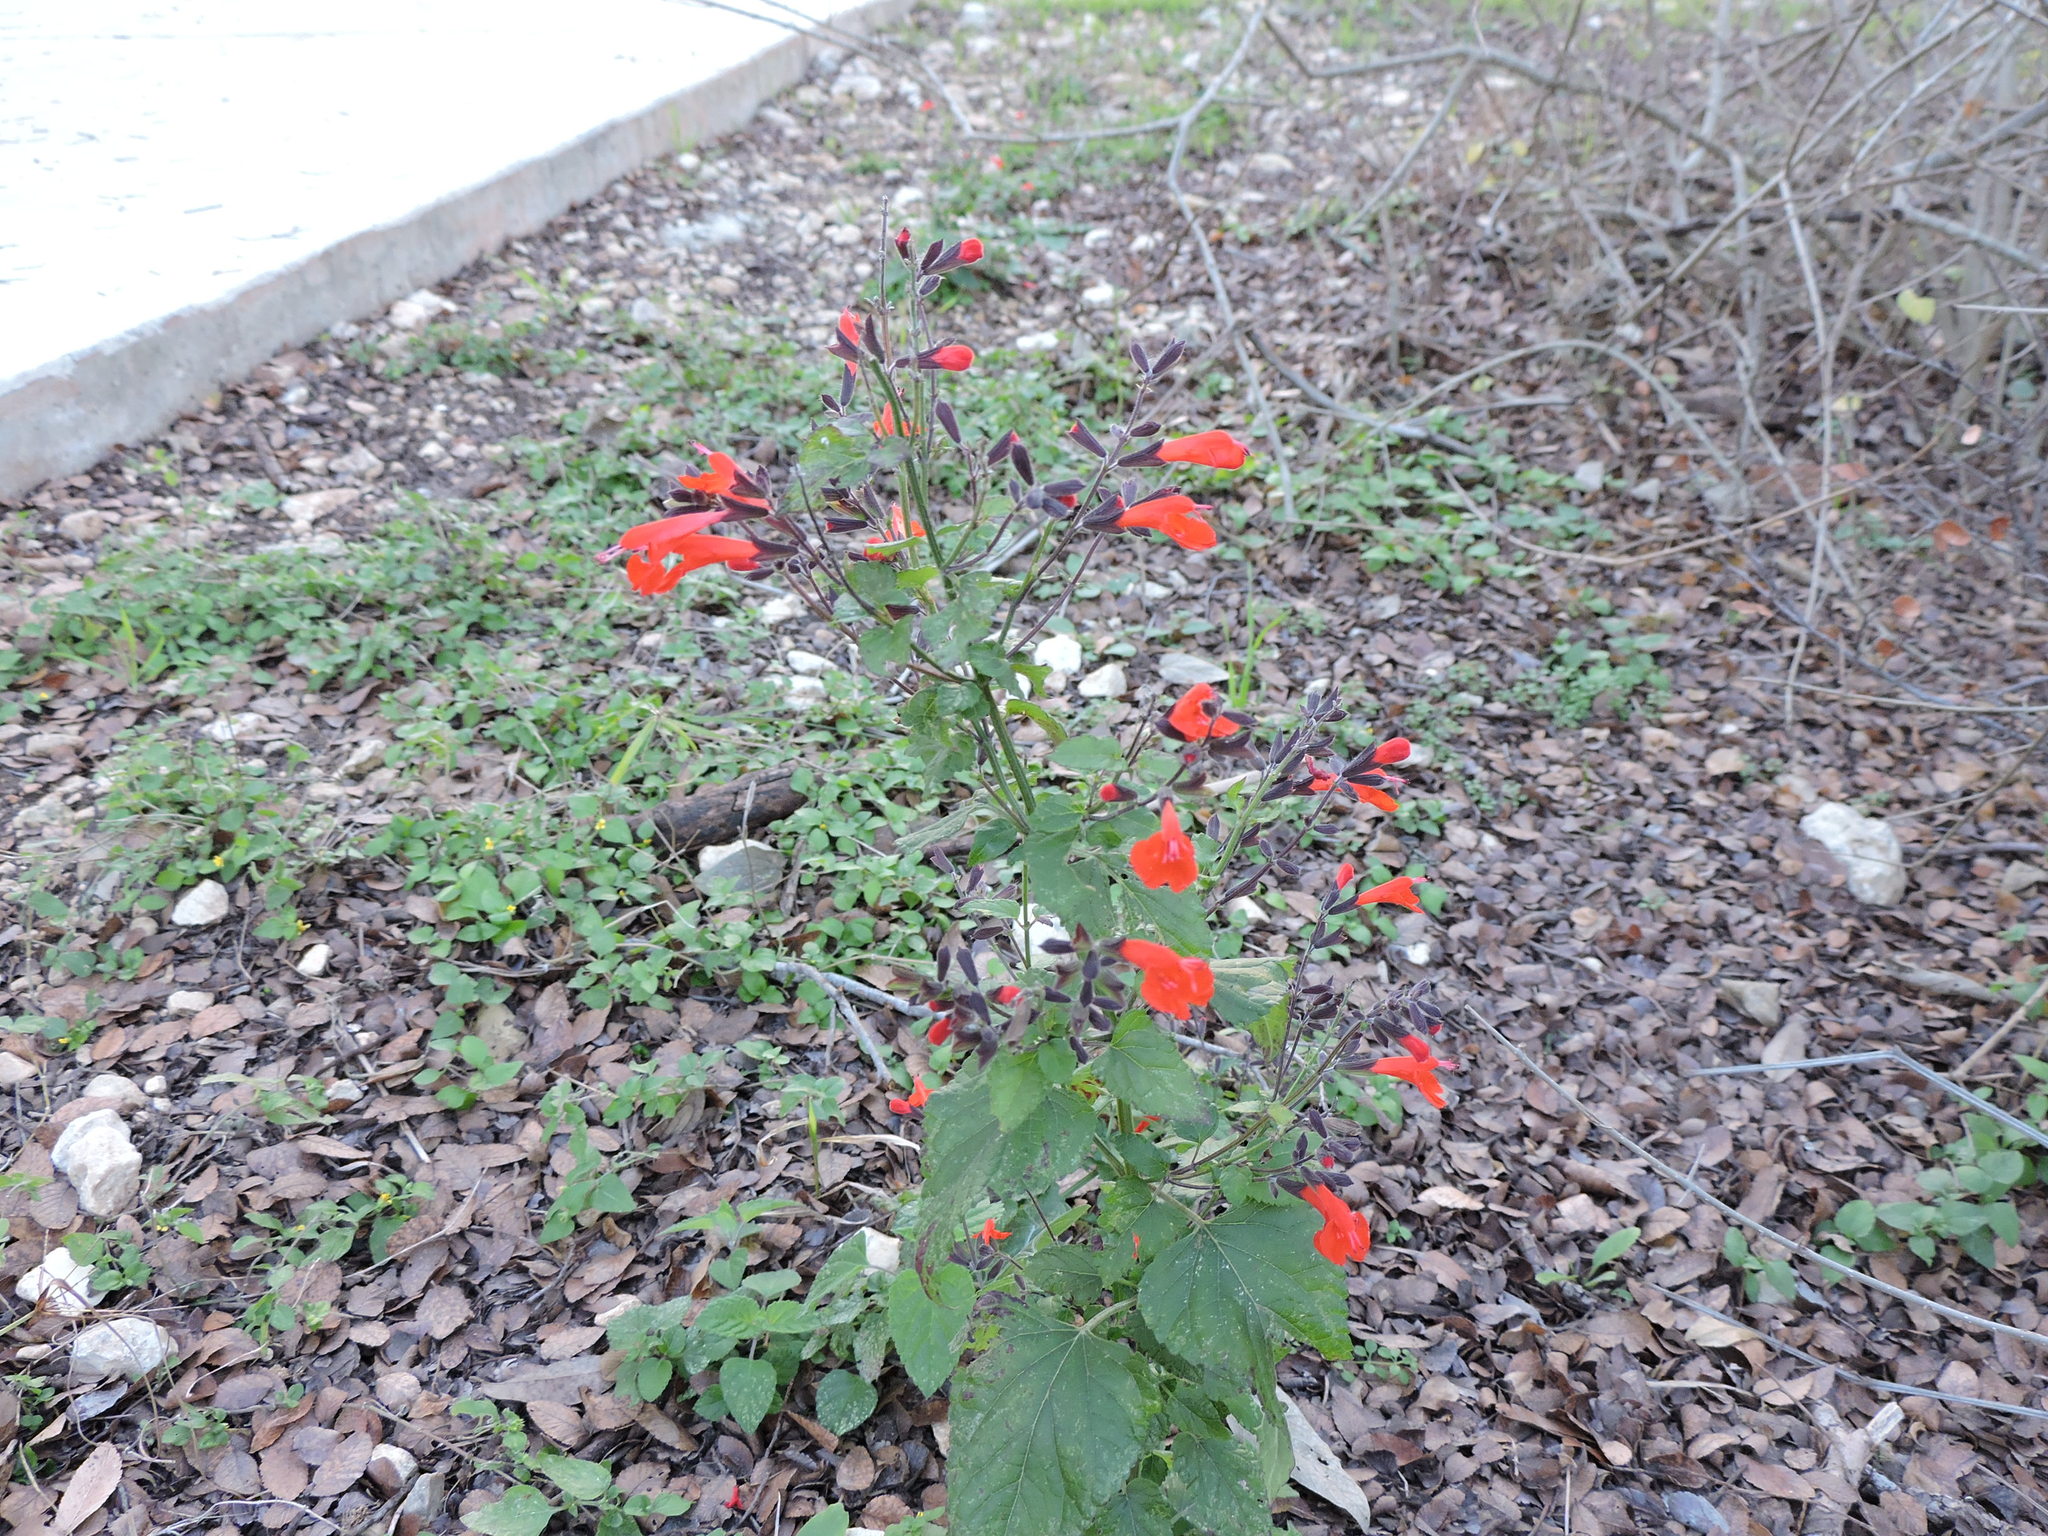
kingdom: Plantae
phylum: Tracheophyta
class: Magnoliopsida
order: Lamiales
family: Lamiaceae
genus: Salvia
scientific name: Salvia coccinea
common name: Blood sage
